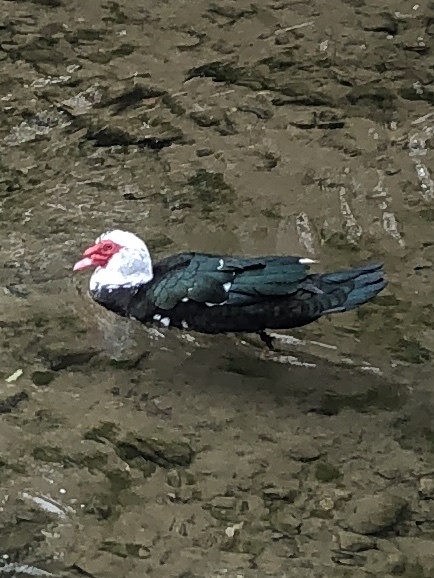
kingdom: Animalia
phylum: Chordata
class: Aves
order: Anseriformes
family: Anatidae
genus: Cairina
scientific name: Cairina moschata
